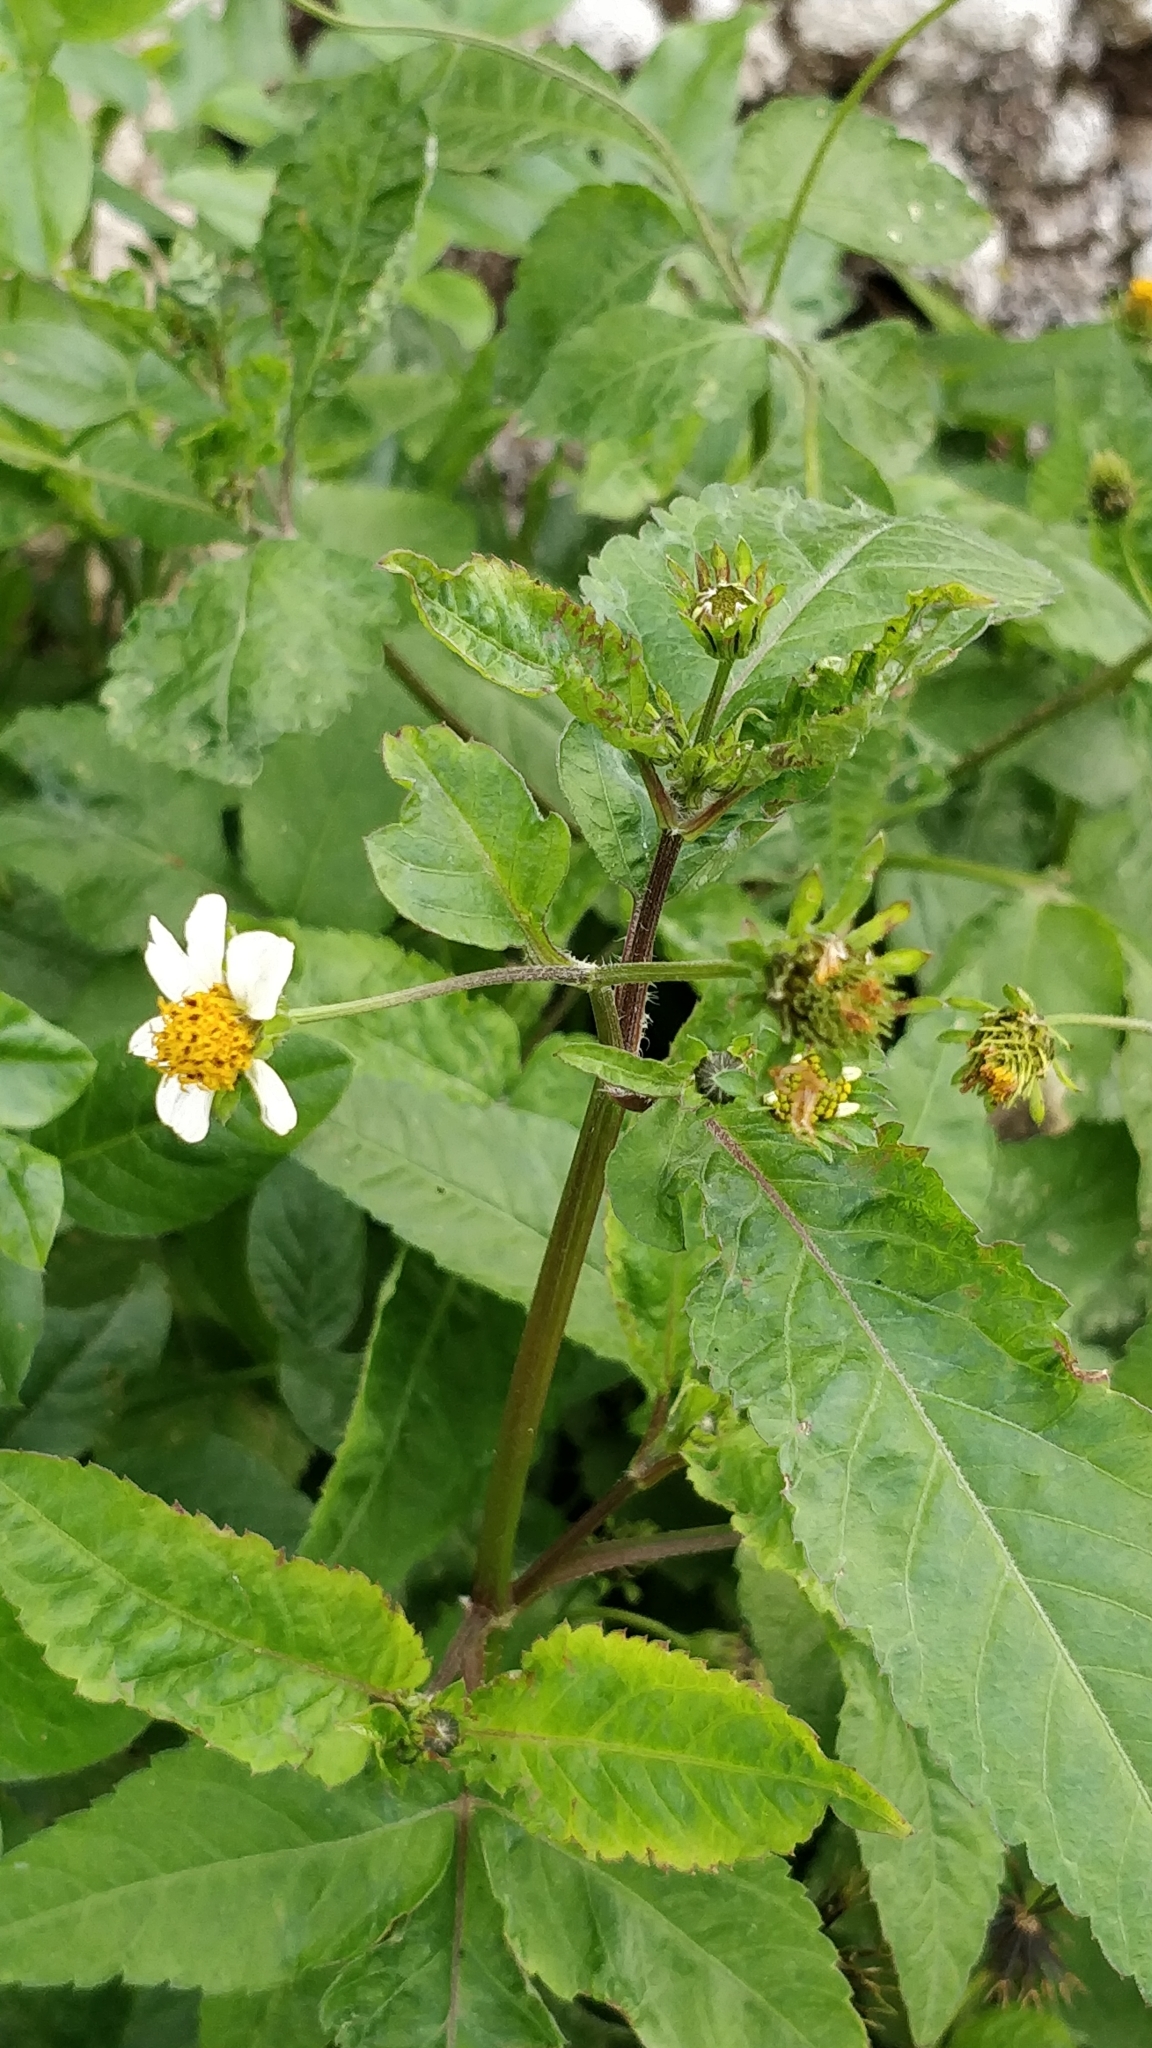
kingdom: Plantae
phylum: Tracheophyta
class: Magnoliopsida
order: Asterales
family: Asteraceae
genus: Bidens
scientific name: Bidens pilosa
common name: Black-jack
